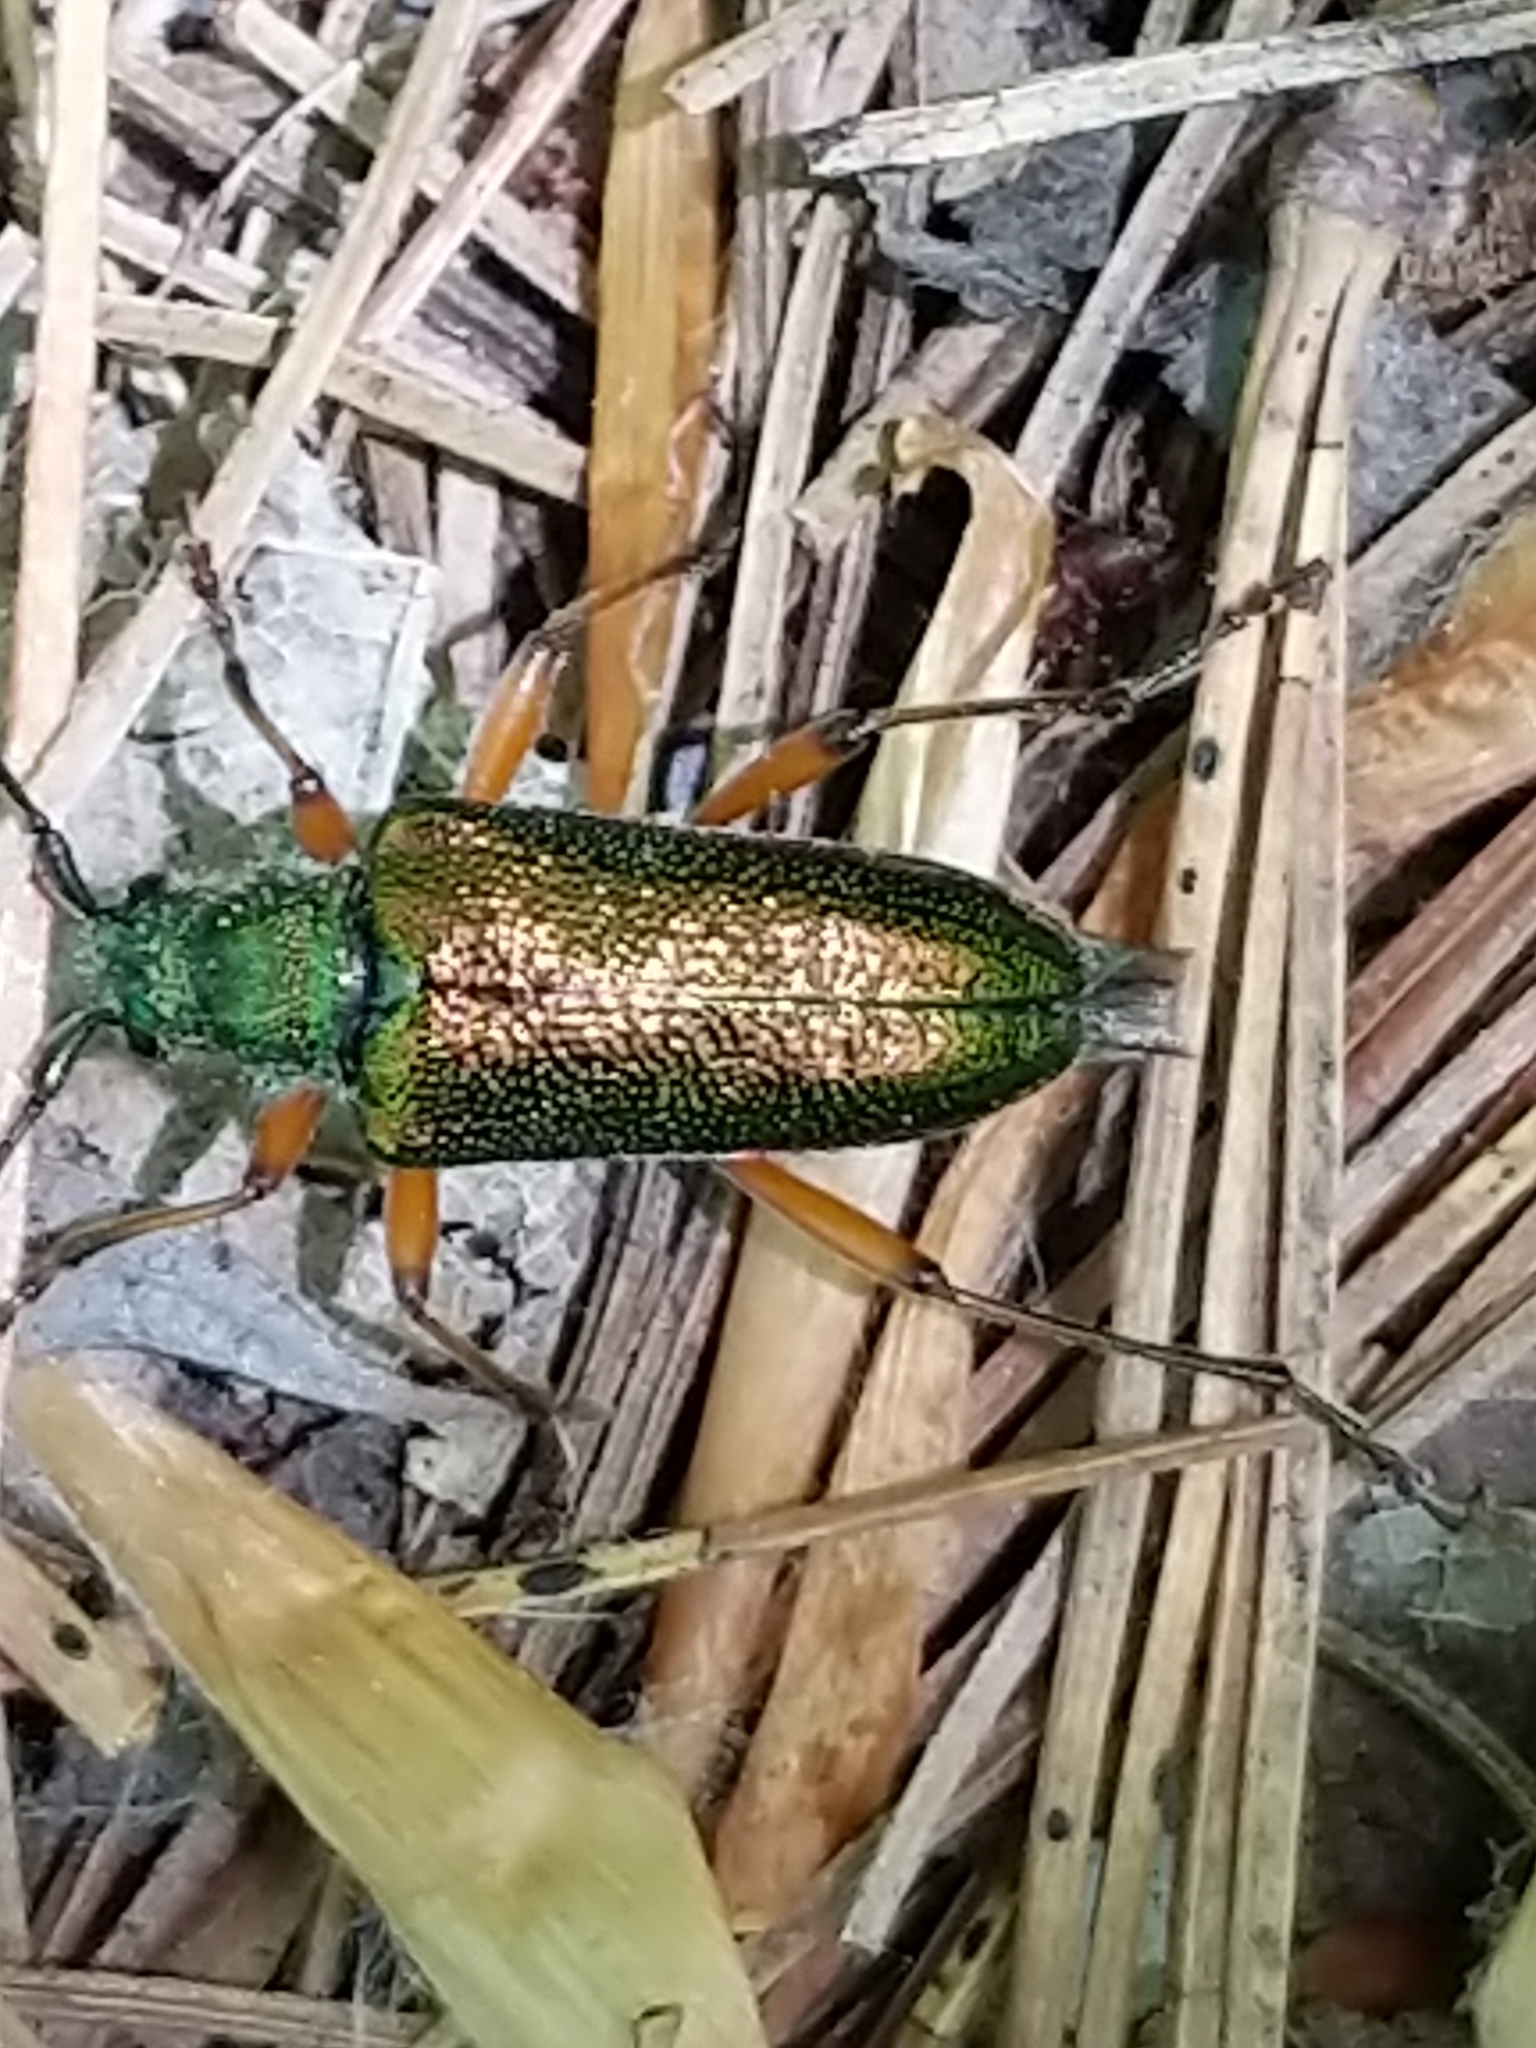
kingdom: Animalia
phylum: Arthropoda
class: Insecta
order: Coleoptera
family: Cerambycidae
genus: Anthophylax
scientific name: Anthophylax cyaneus
